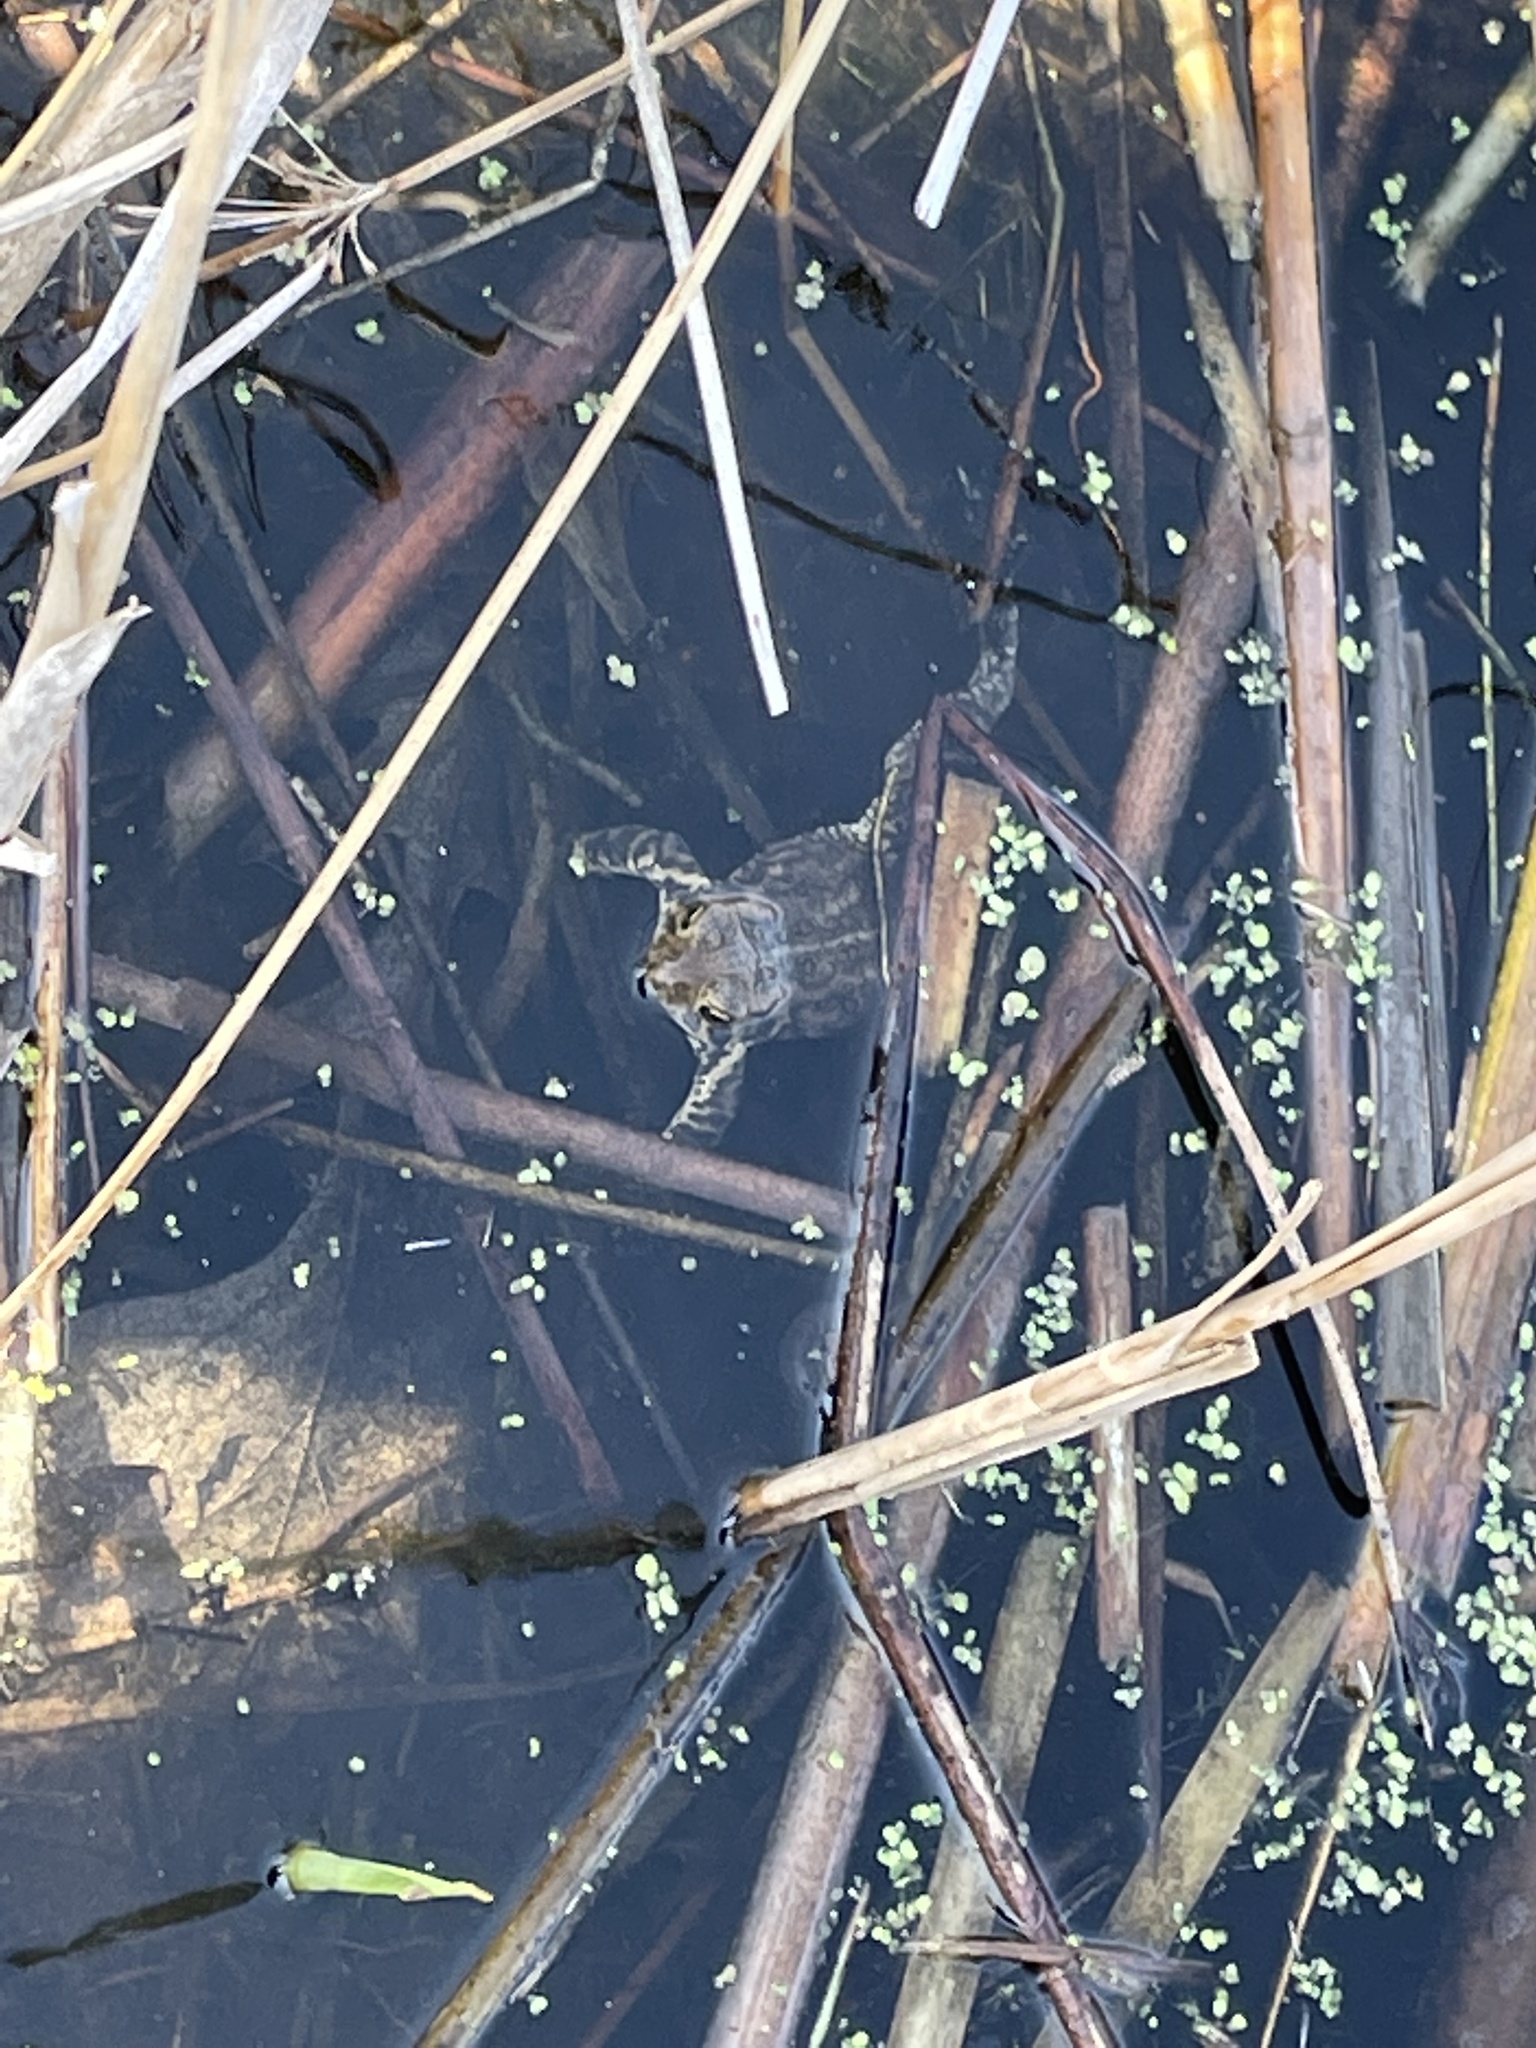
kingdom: Animalia
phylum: Chordata
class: Amphibia
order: Anura
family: Bufonidae
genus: Anaxyrus
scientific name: Anaxyrus americanus
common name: American toad
